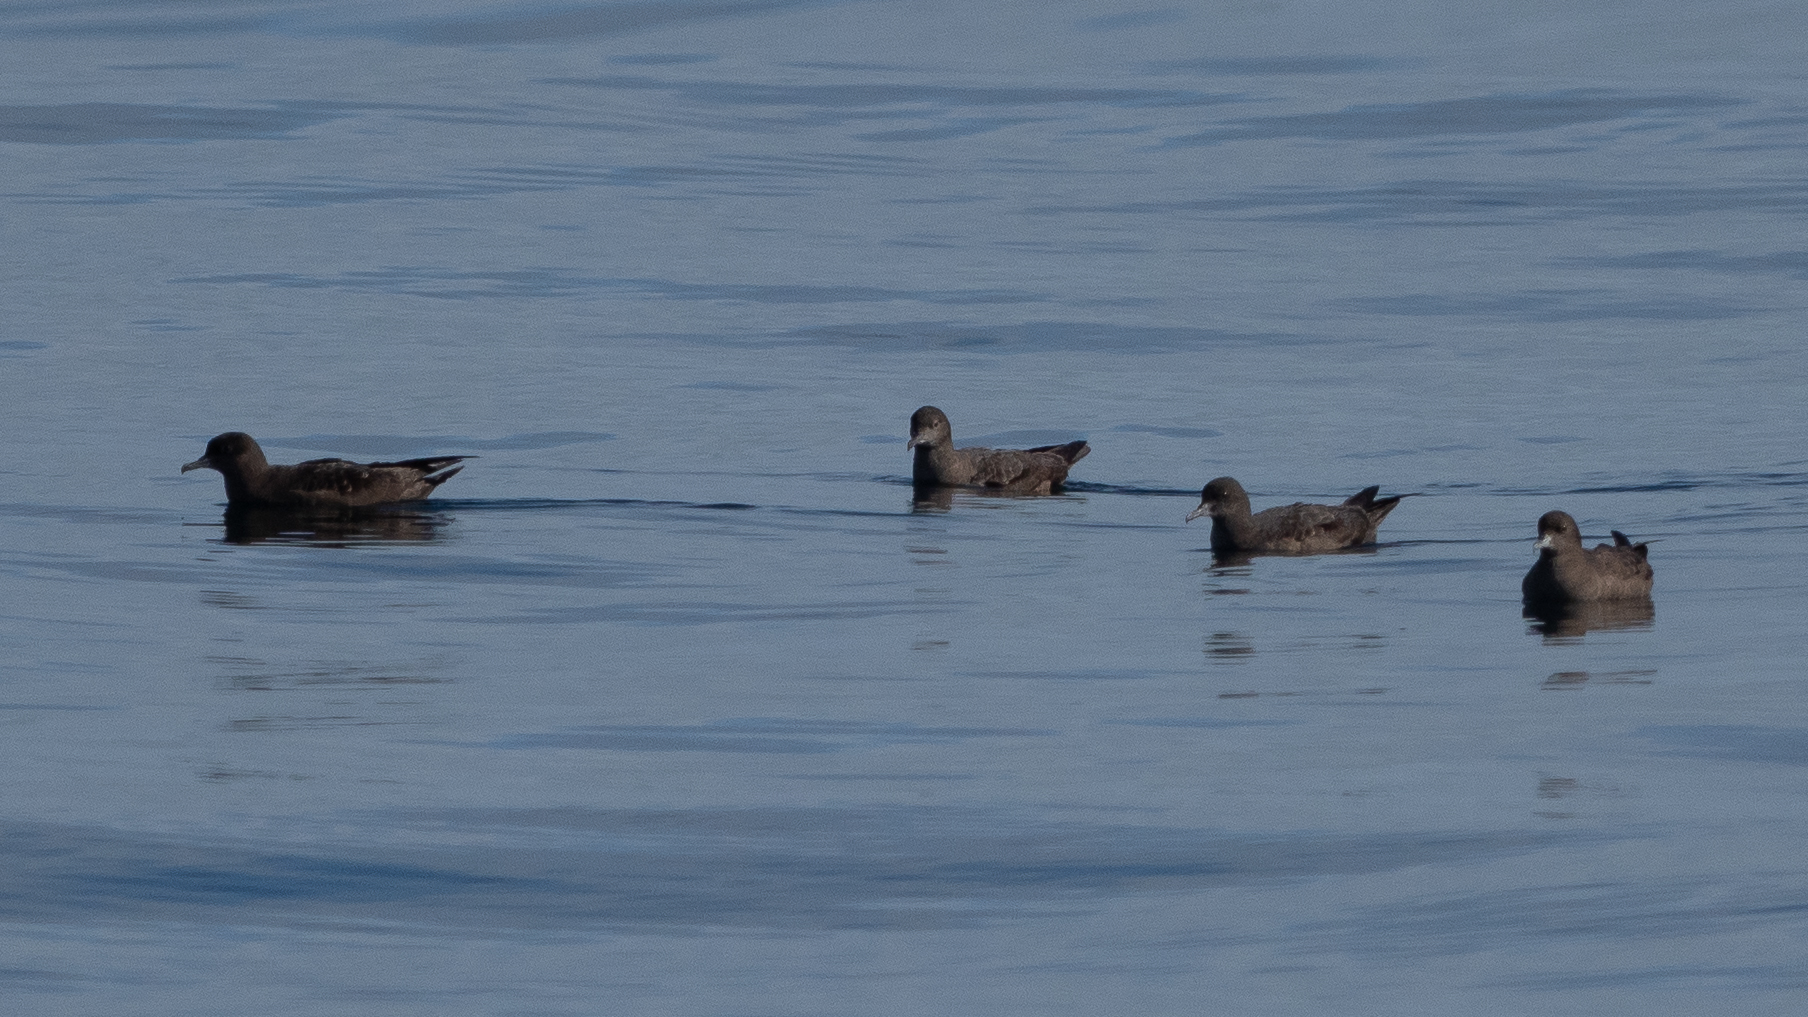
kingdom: Animalia
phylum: Chordata
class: Aves
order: Procellariiformes
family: Procellariidae
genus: Puffinus
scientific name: Puffinus griseus
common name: Sooty shearwater
